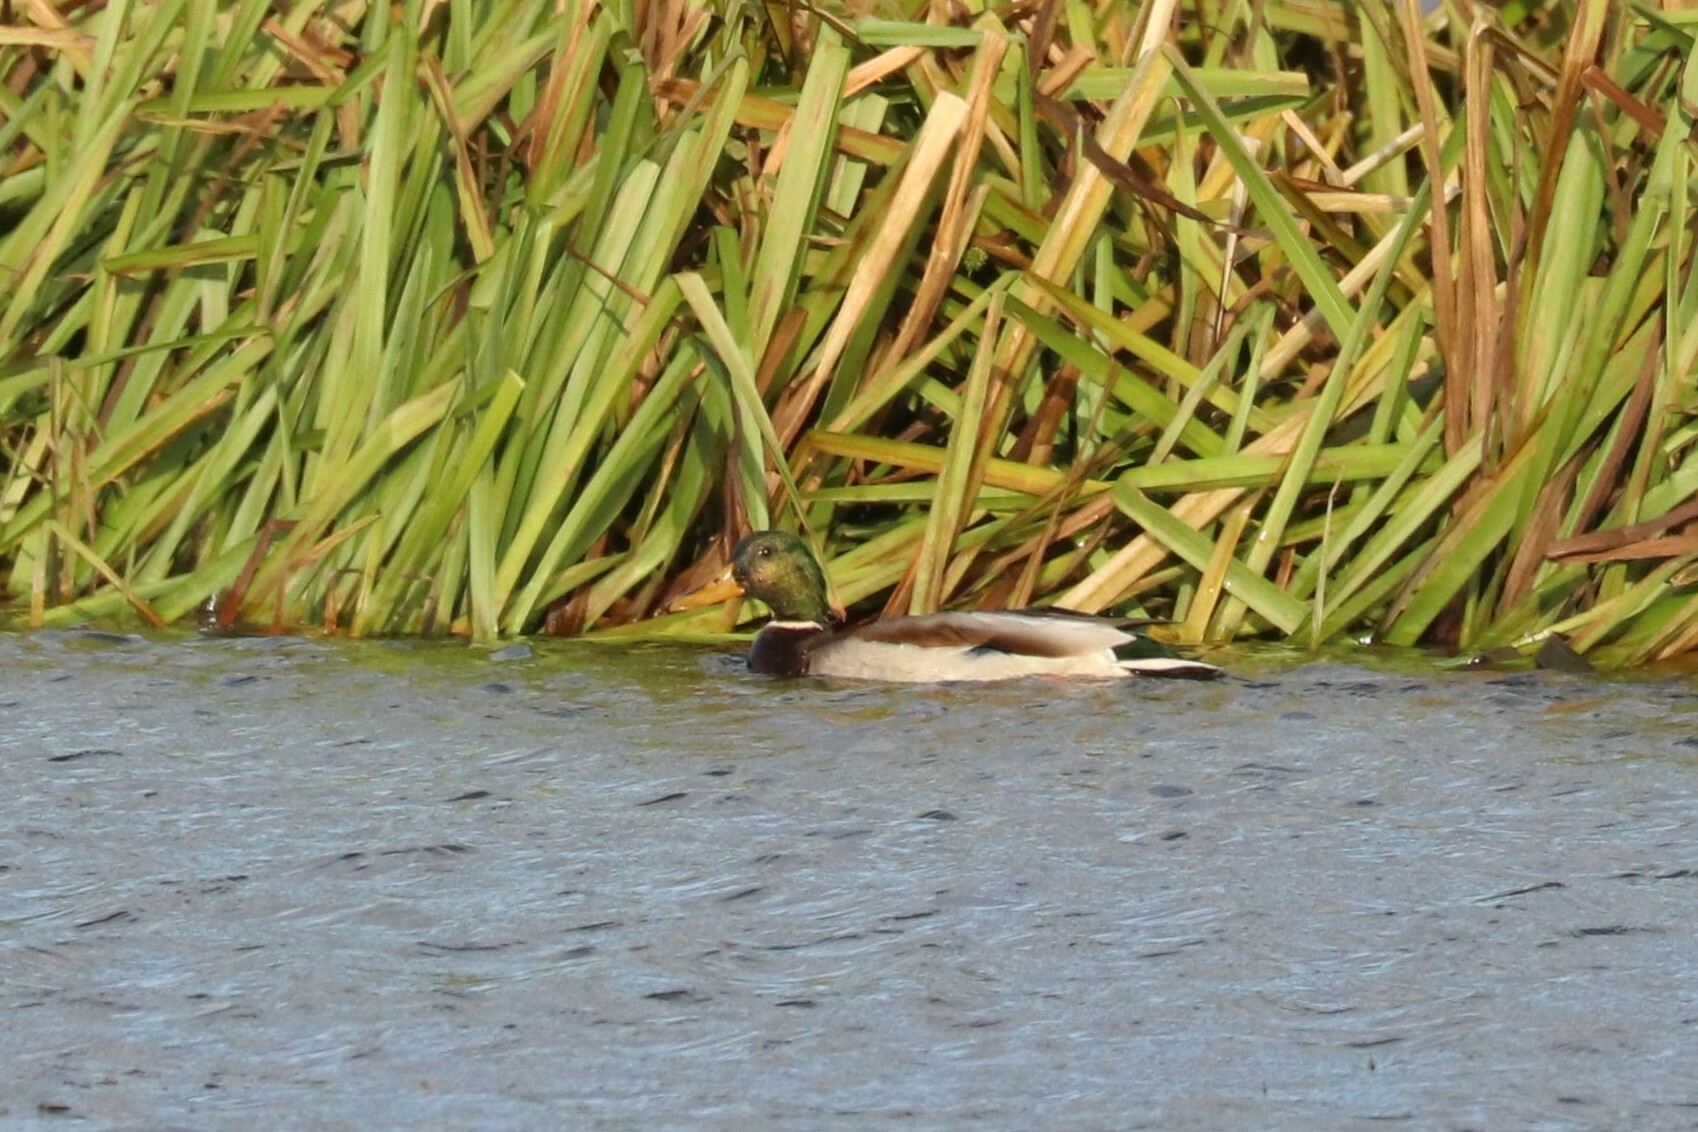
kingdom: Animalia
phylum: Chordata
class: Aves
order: Anseriformes
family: Anatidae
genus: Anas
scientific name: Anas platyrhynchos
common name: Mallard
